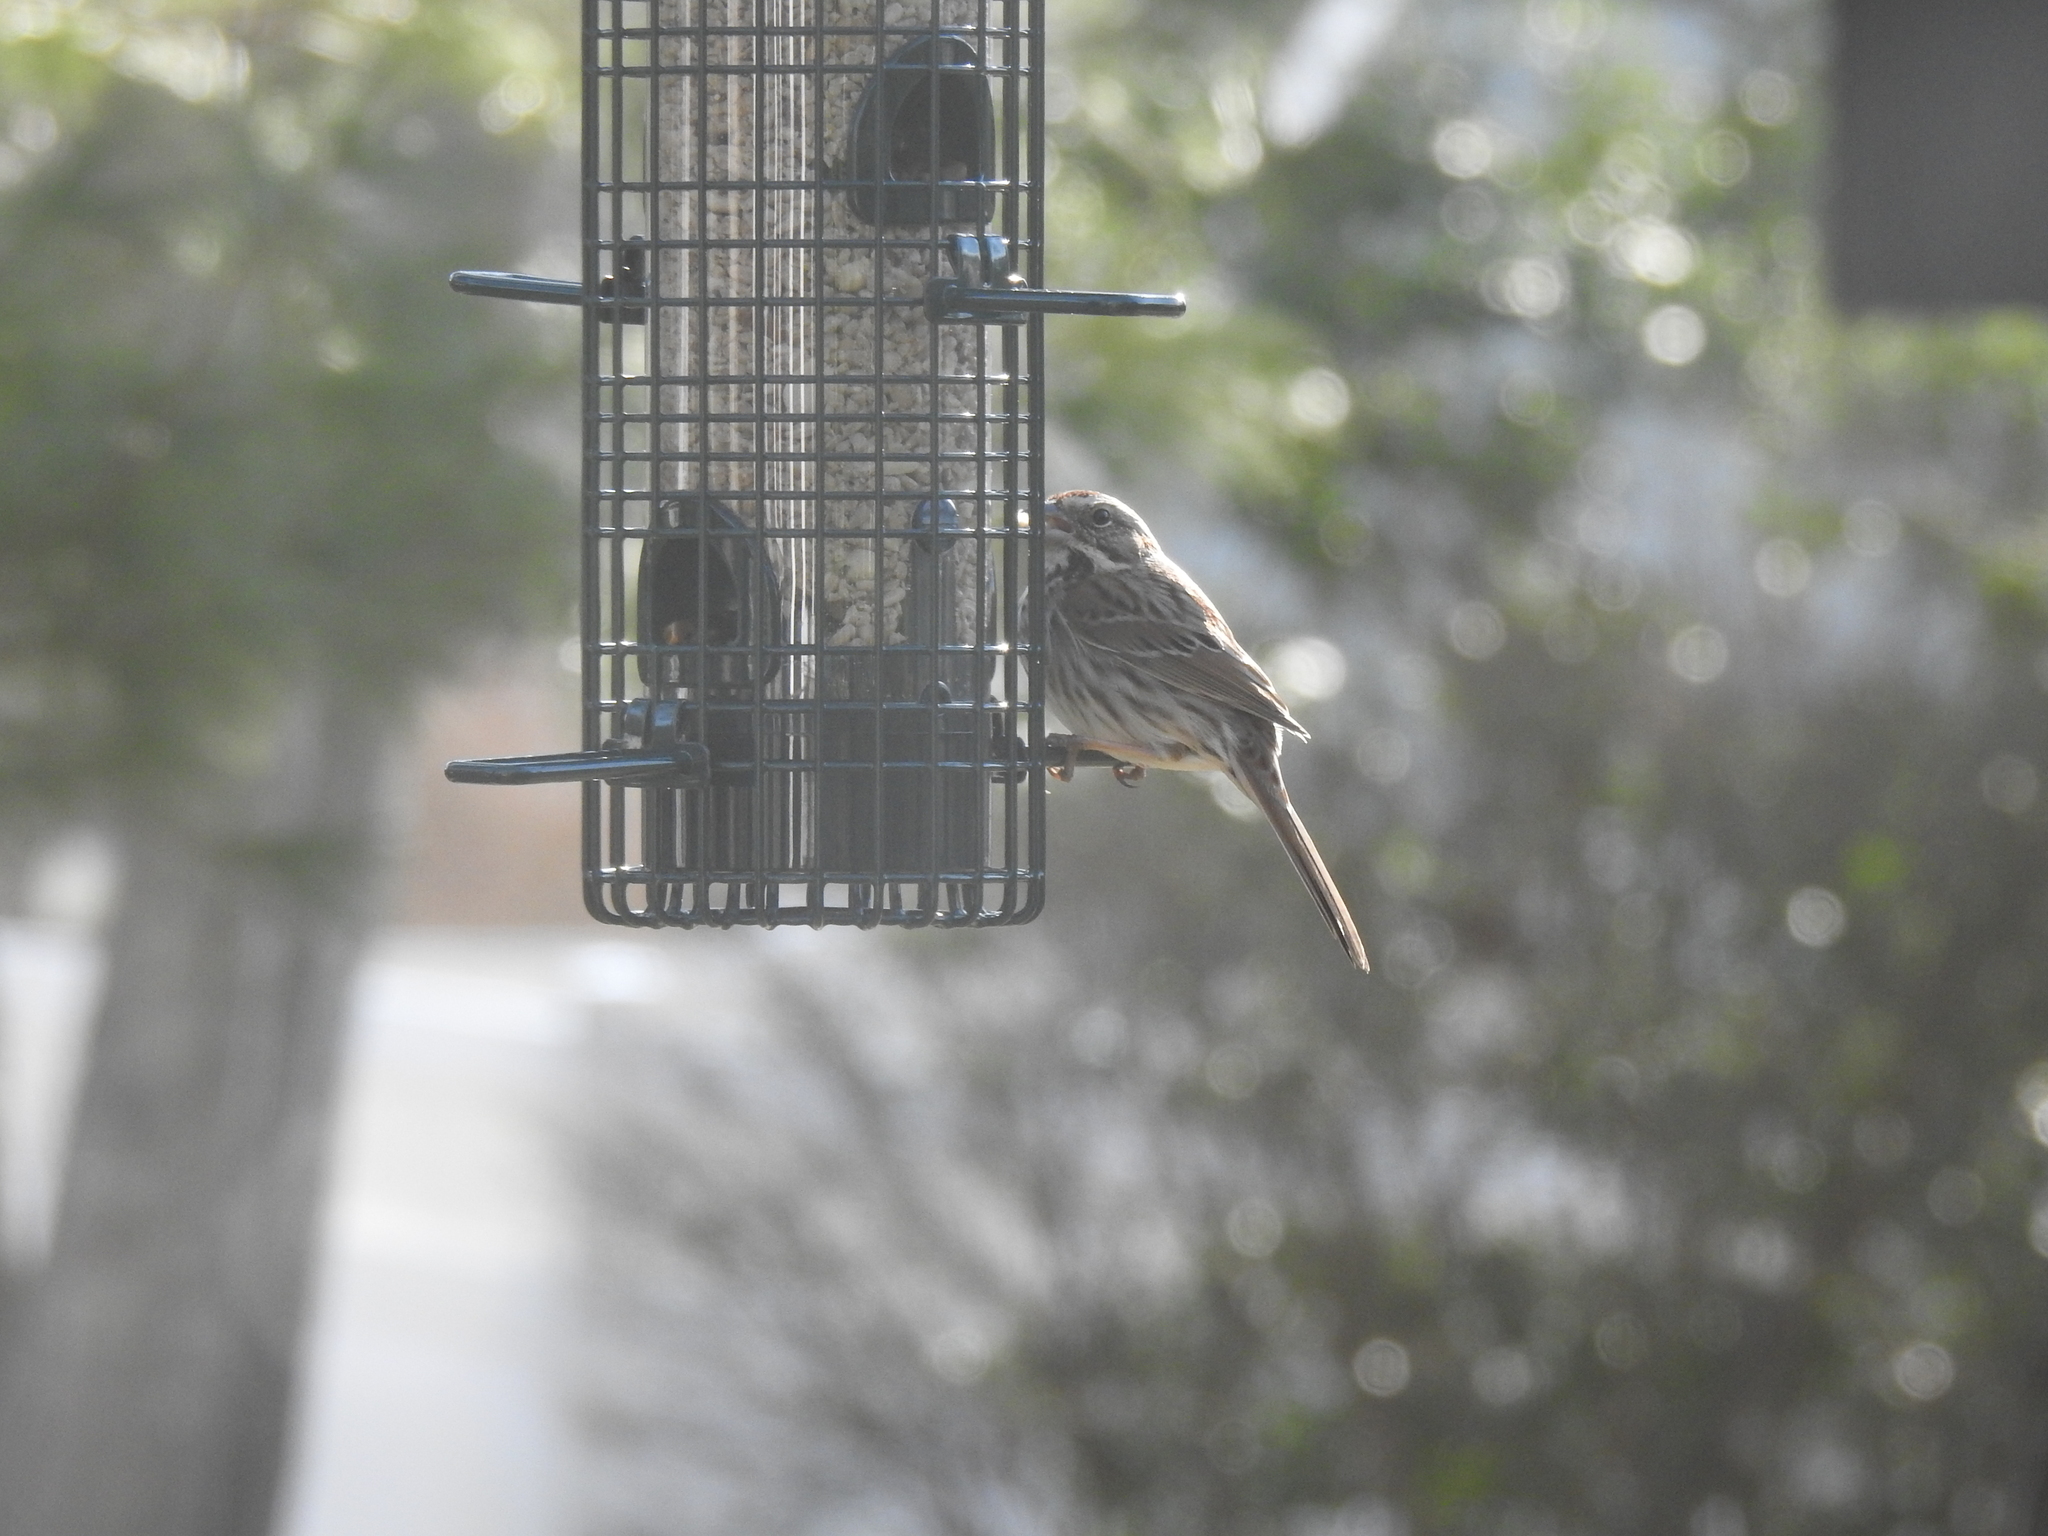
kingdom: Animalia
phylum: Chordata
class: Aves
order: Passeriformes
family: Passerellidae
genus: Melospiza
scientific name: Melospiza melodia
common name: Song sparrow
